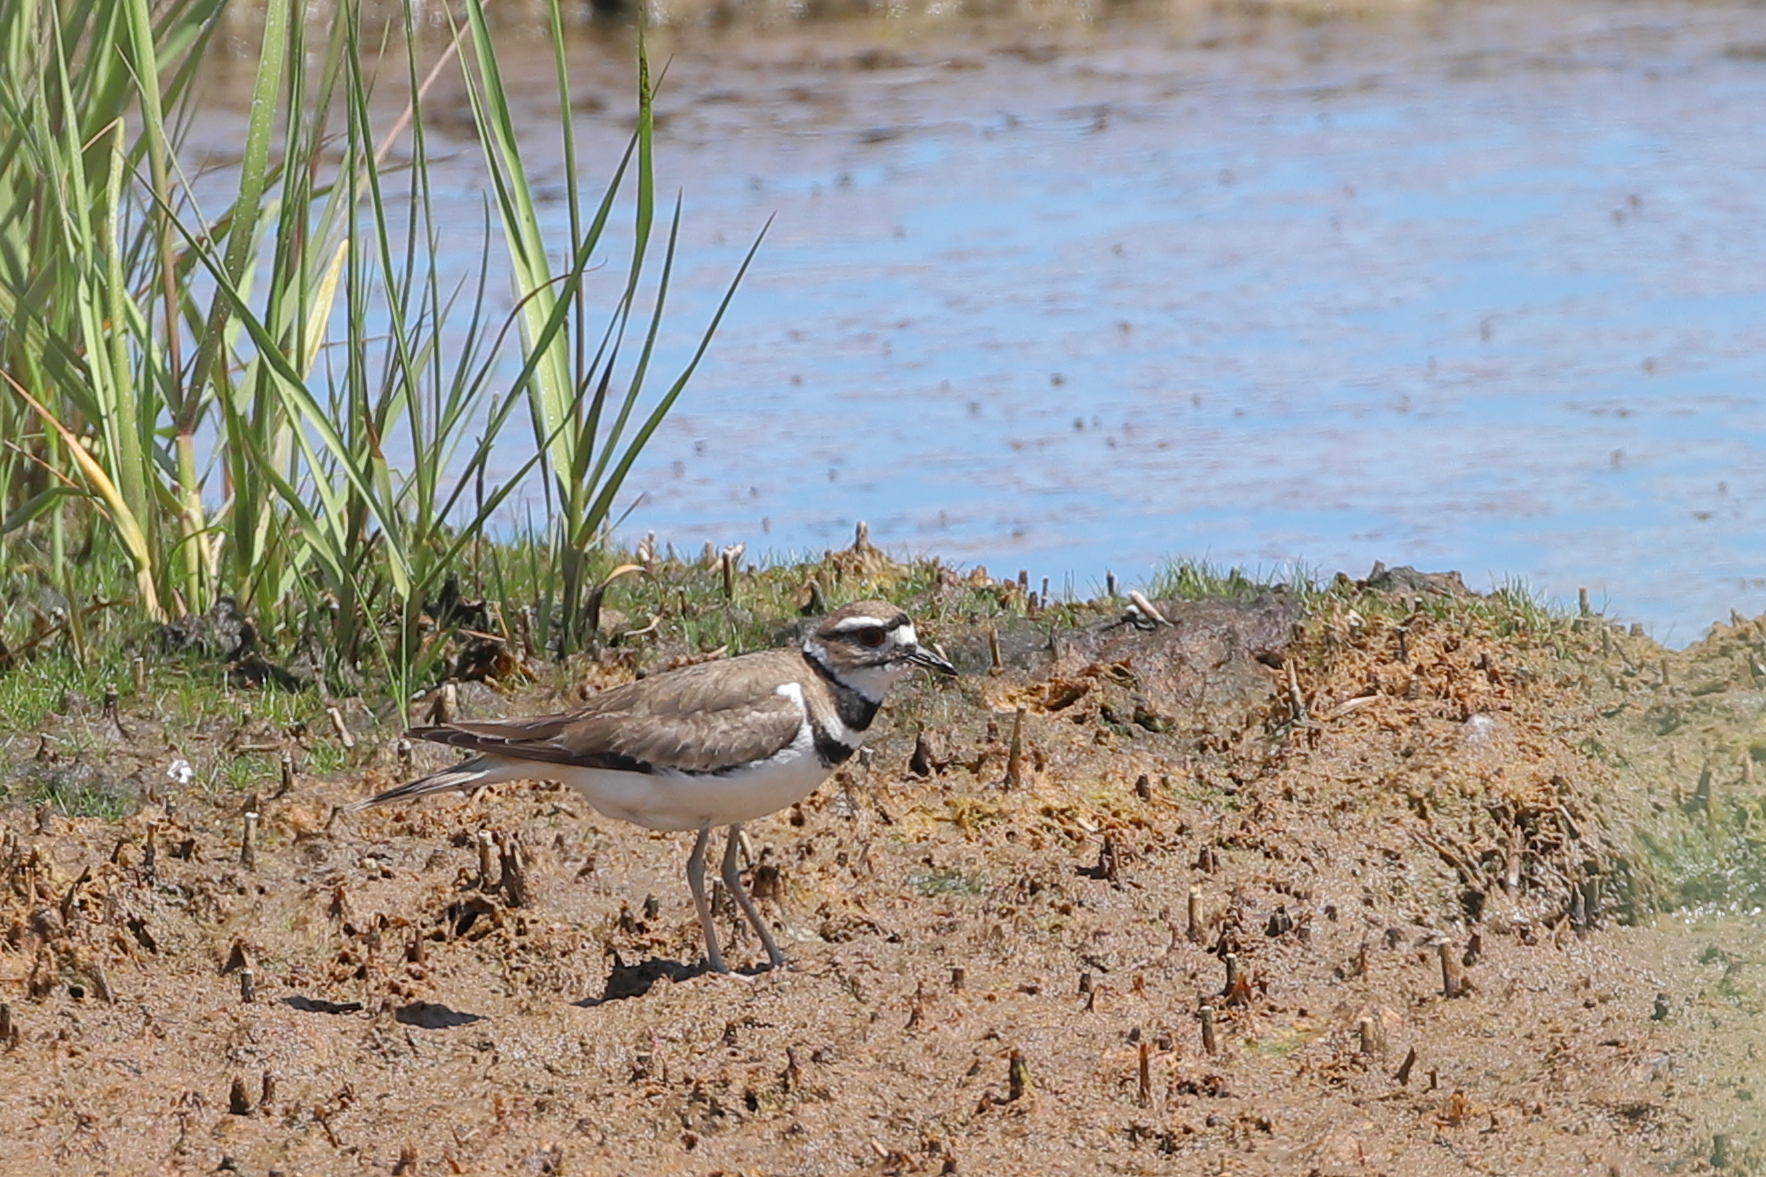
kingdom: Animalia
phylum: Chordata
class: Aves
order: Charadriiformes
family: Charadriidae
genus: Charadrius
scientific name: Charadrius vociferus
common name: Killdeer
